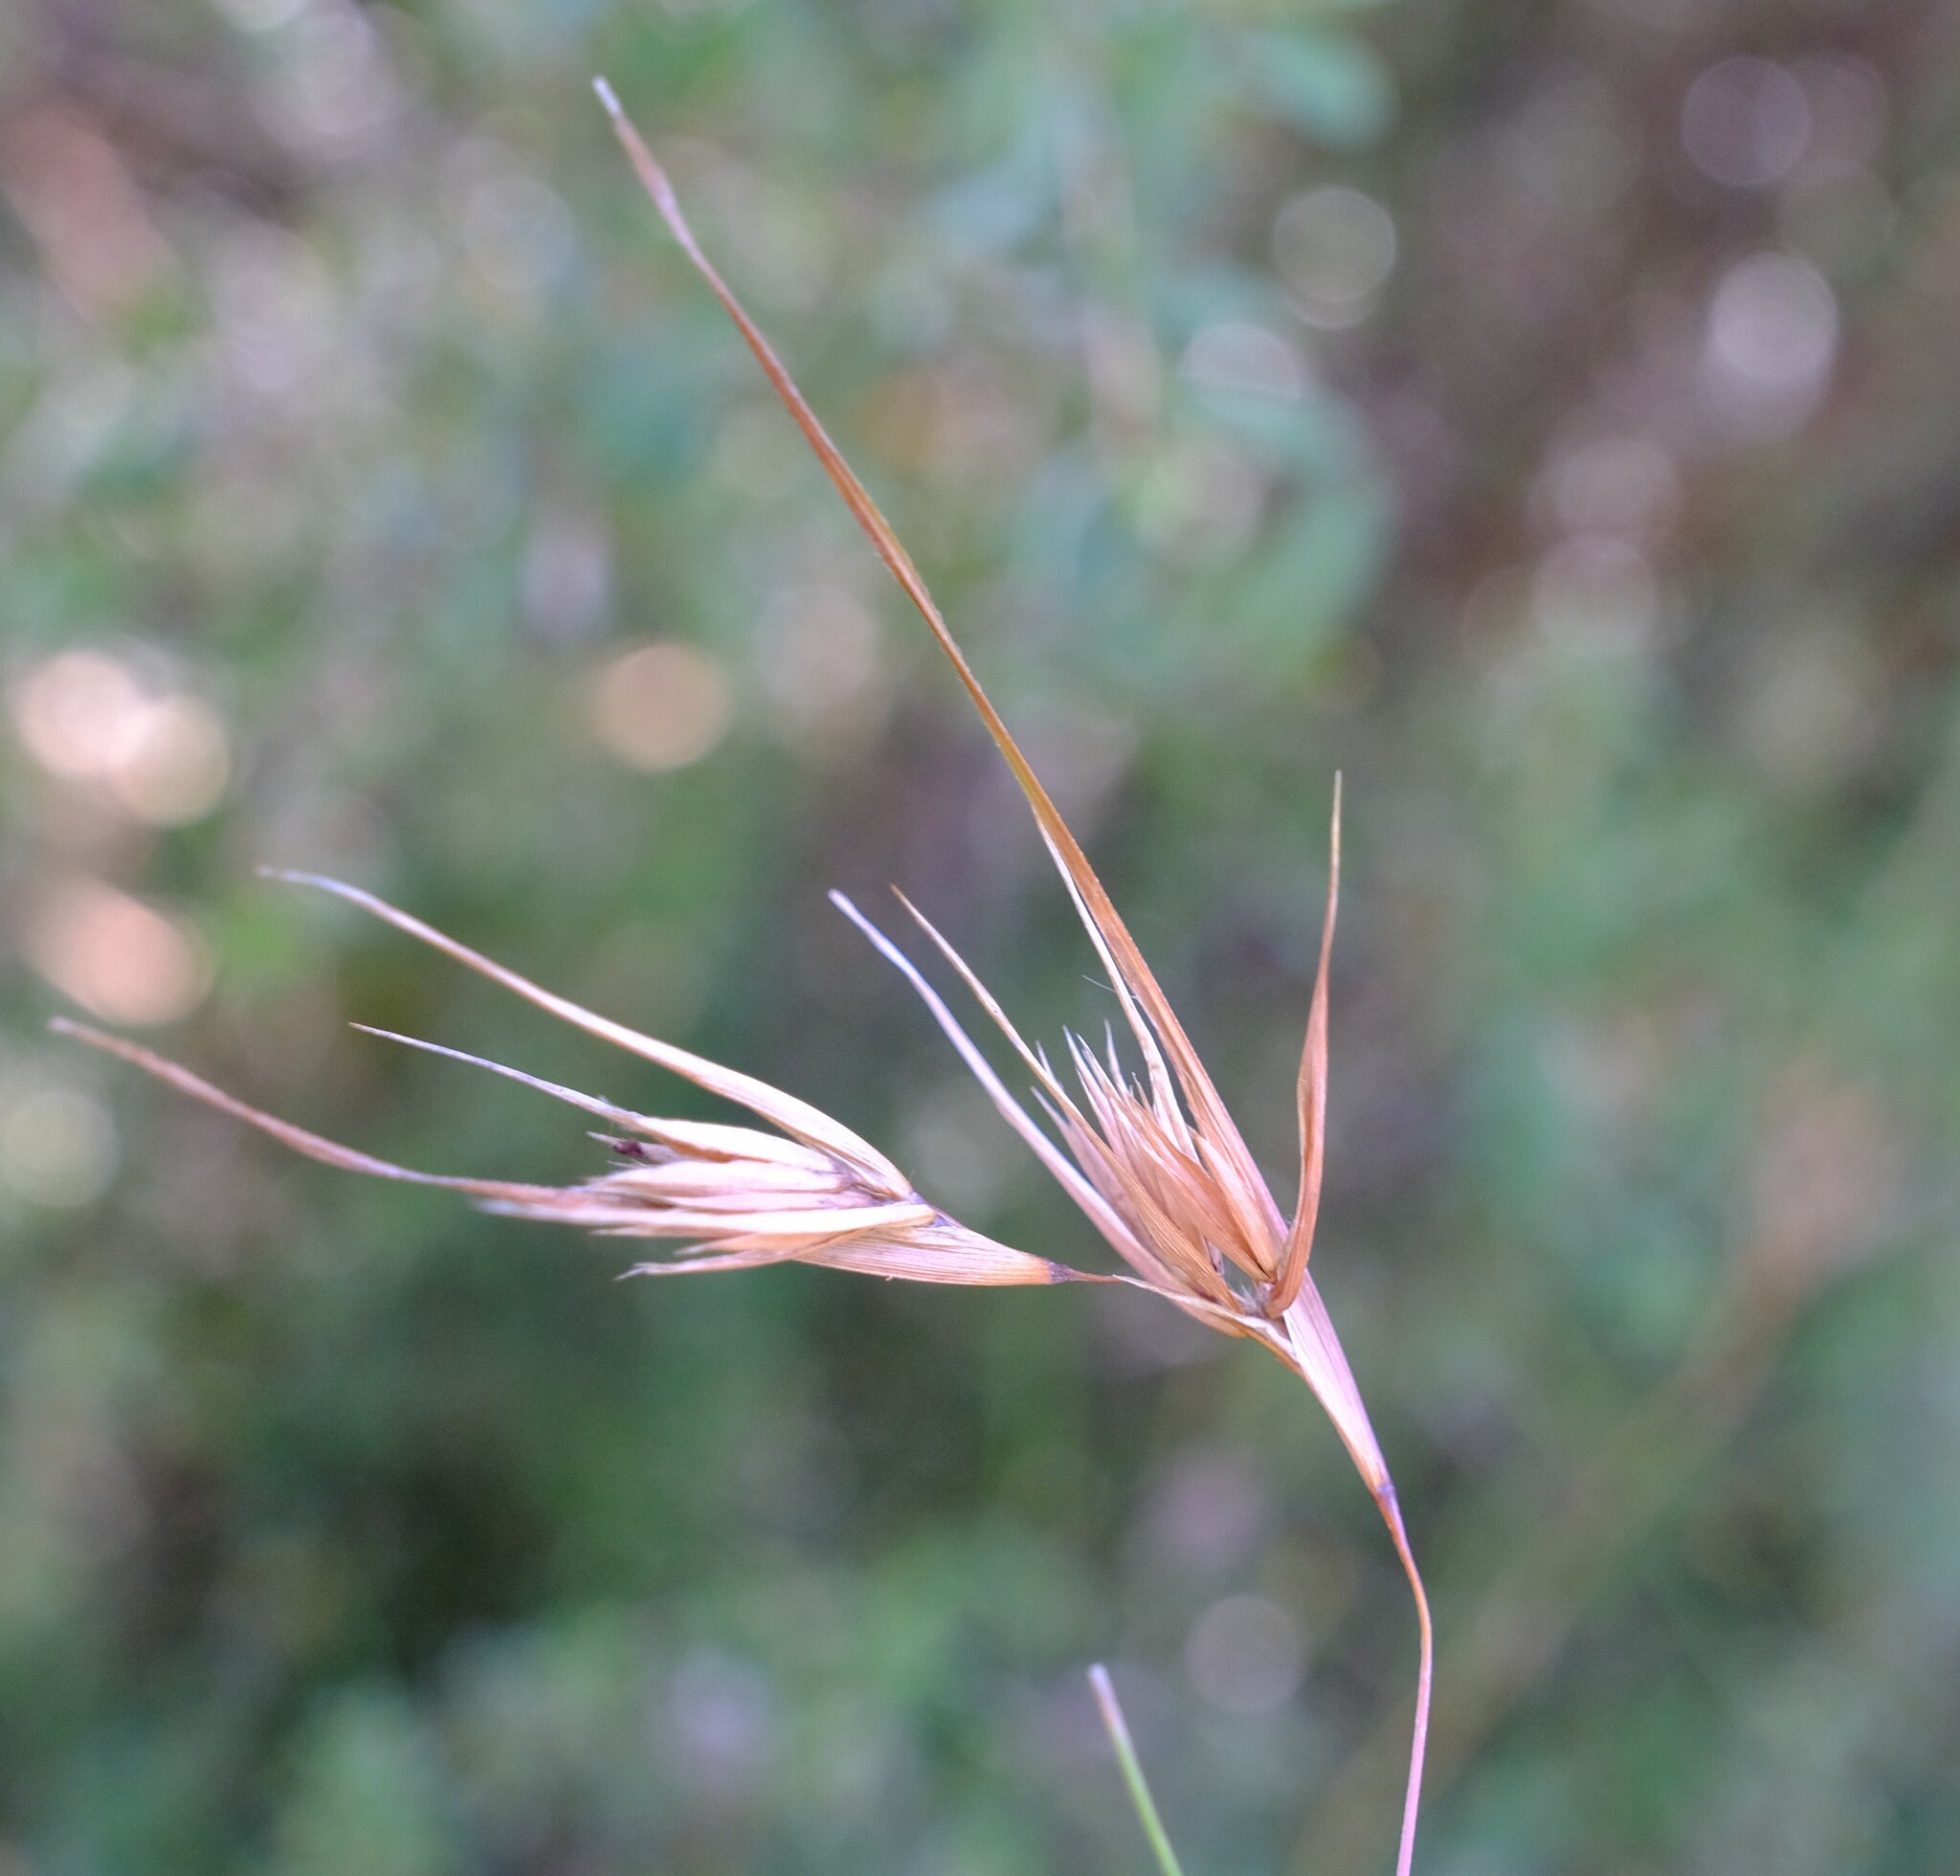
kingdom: Plantae
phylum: Tracheophyta
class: Liliopsida
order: Poales
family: Poaceae
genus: Themeda
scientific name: Themeda triandra
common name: Kangaroo grass
